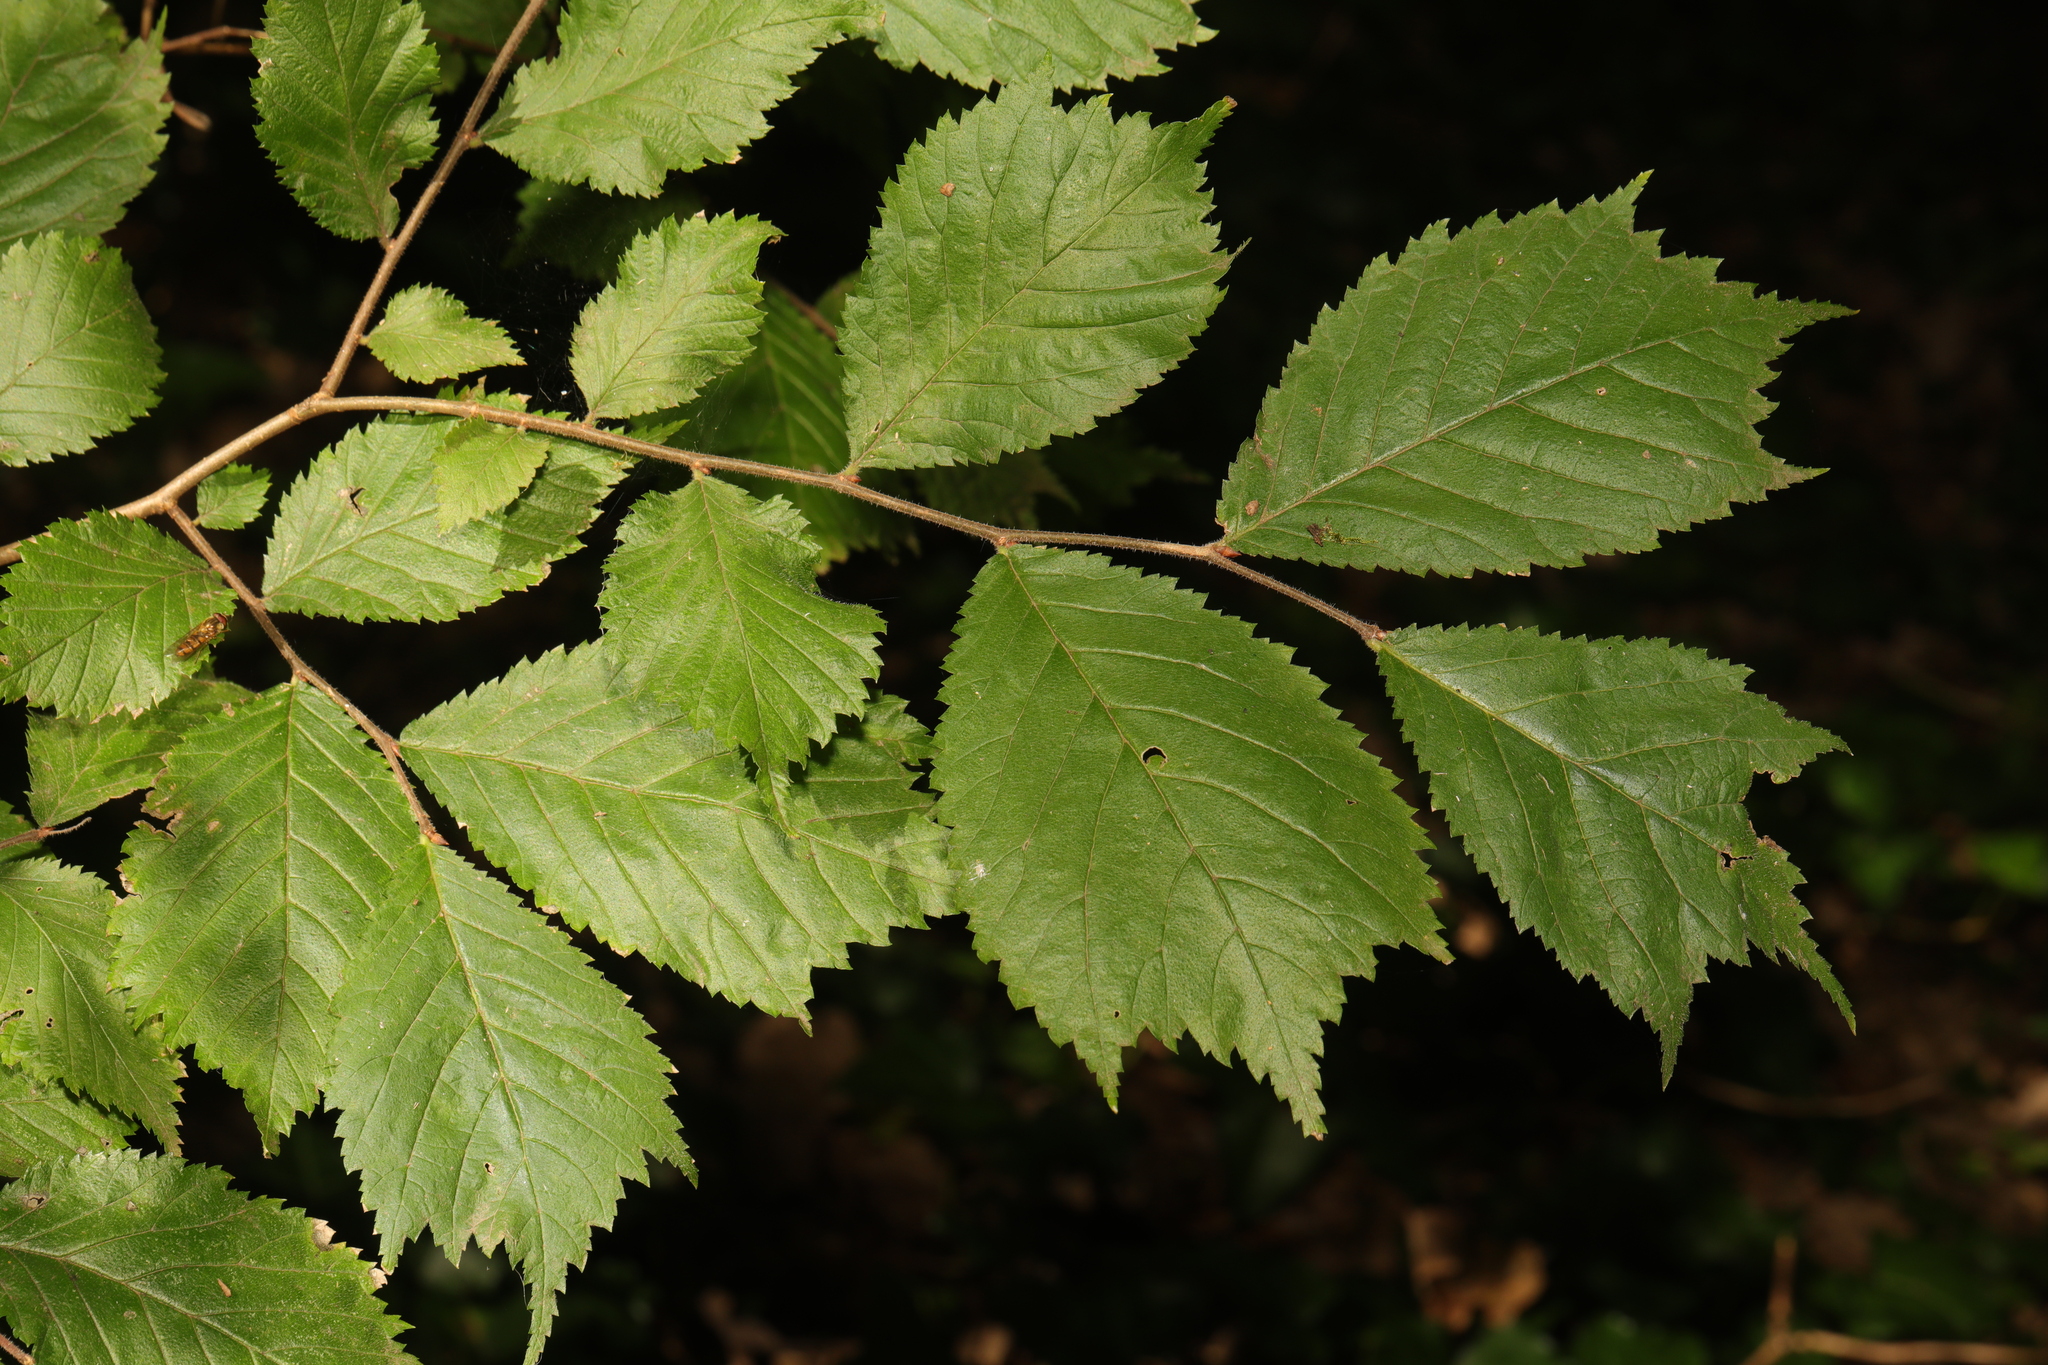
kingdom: Plantae
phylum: Tracheophyta
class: Magnoliopsida
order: Rosales
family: Ulmaceae
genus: Ulmus
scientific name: Ulmus glabra
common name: Wych elm
